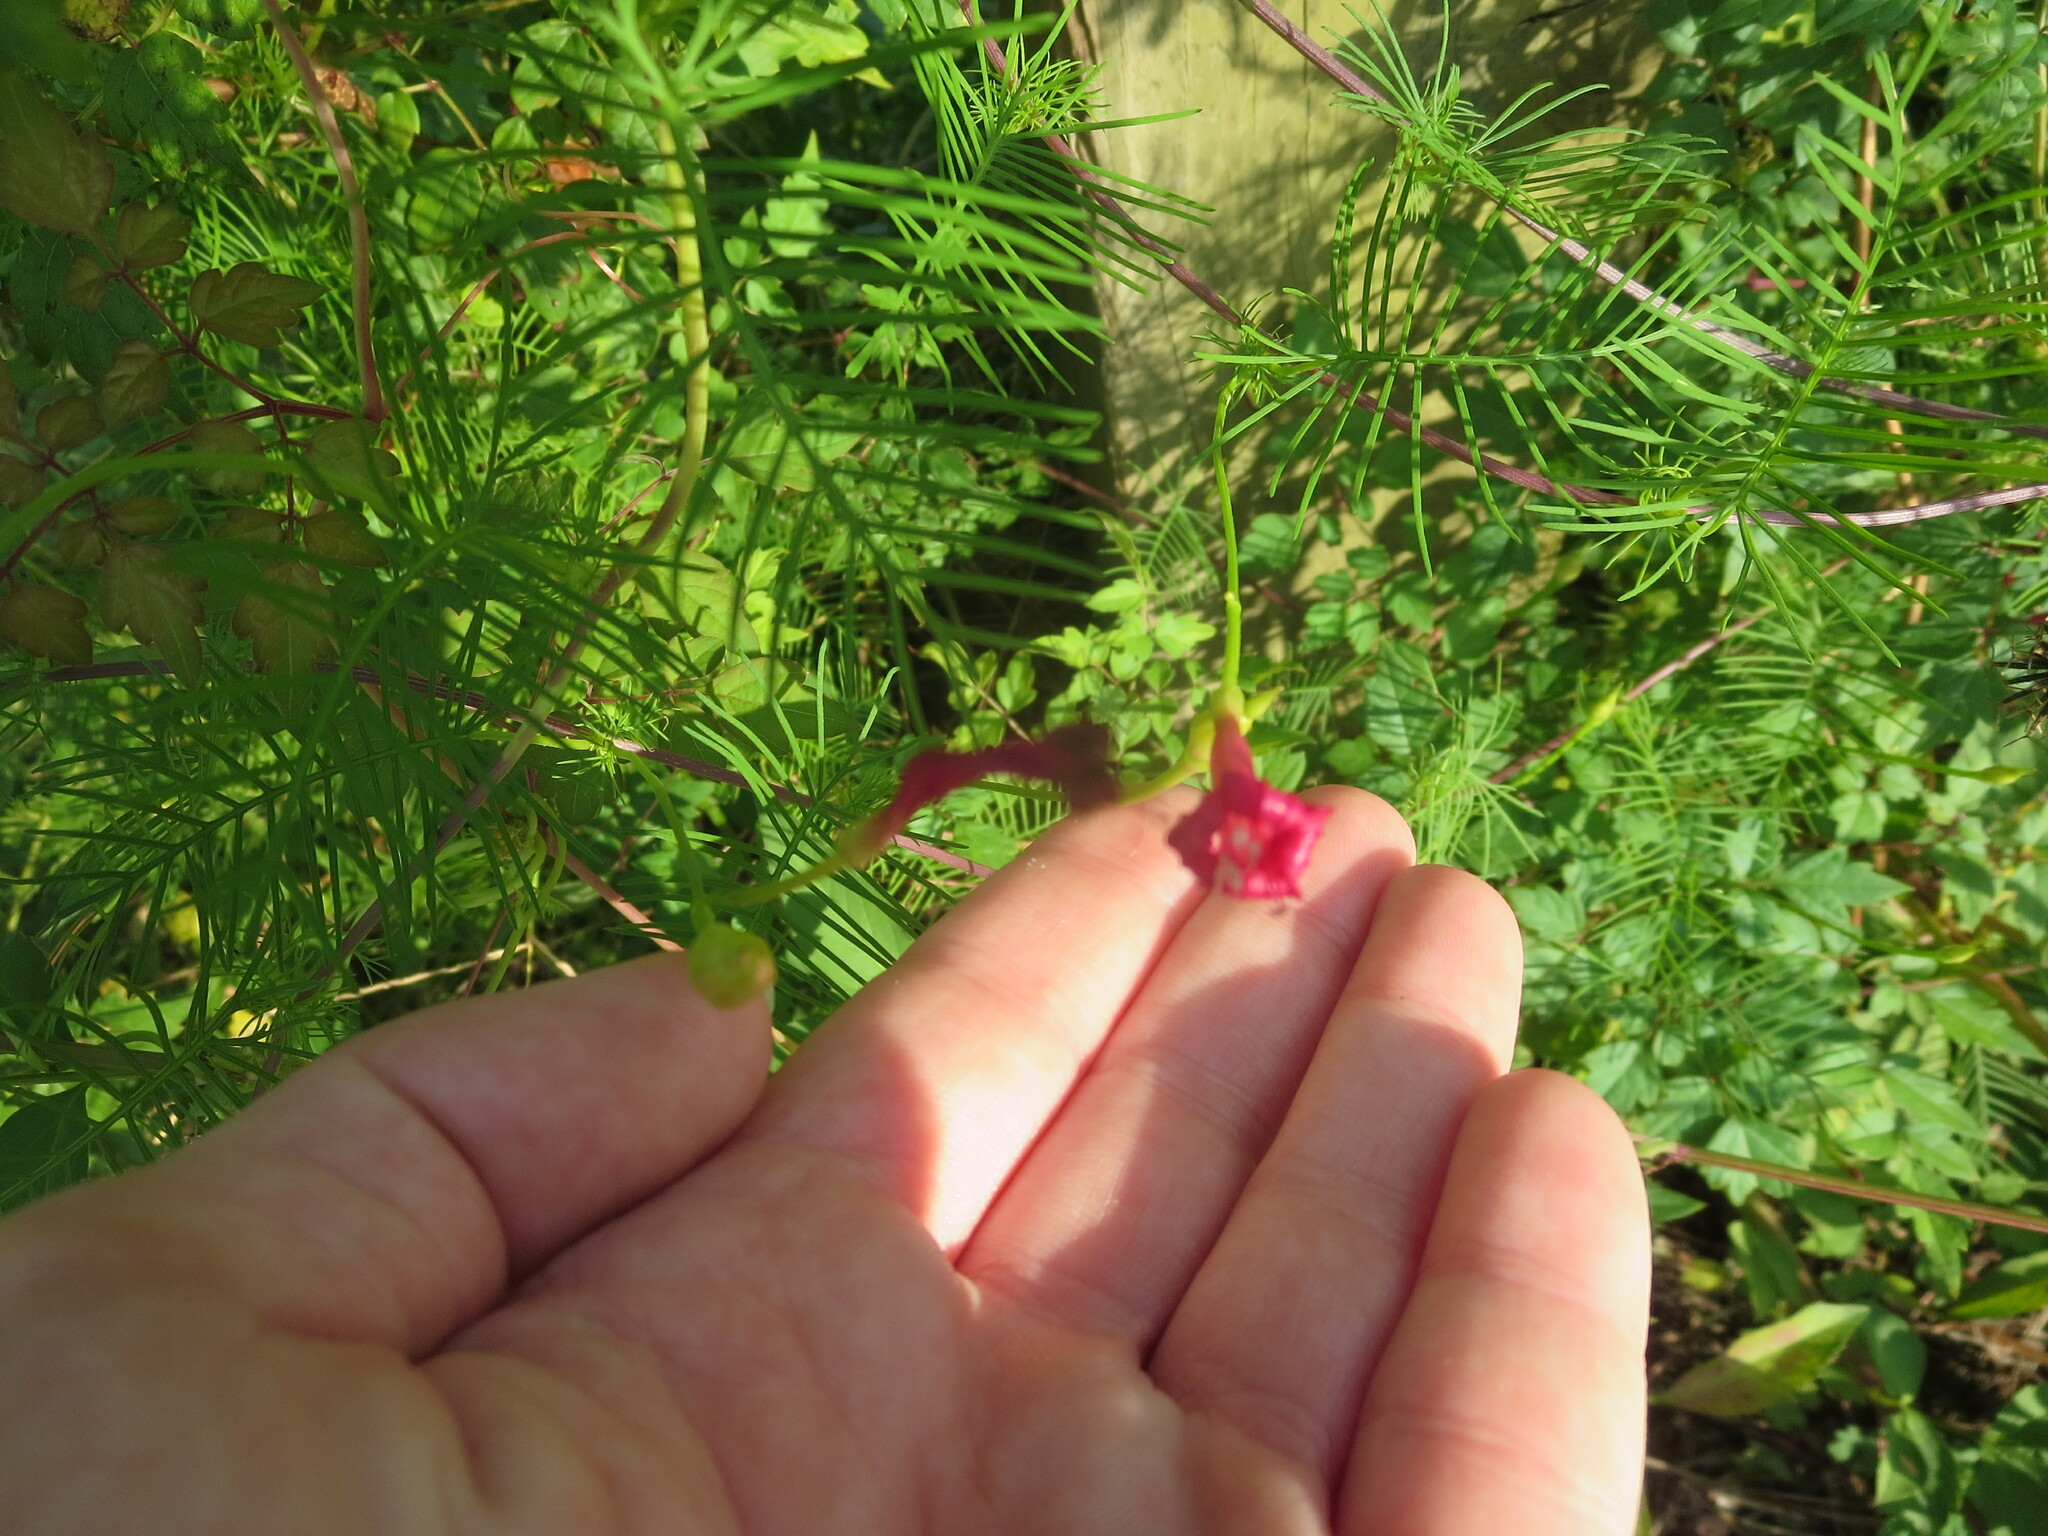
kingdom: Plantae
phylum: Tracheophyta
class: Magnoliopsida
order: Solanales
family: Convolvulaceae
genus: Ipomoea
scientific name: Ipomoea quamoclit
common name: Cypress vine
